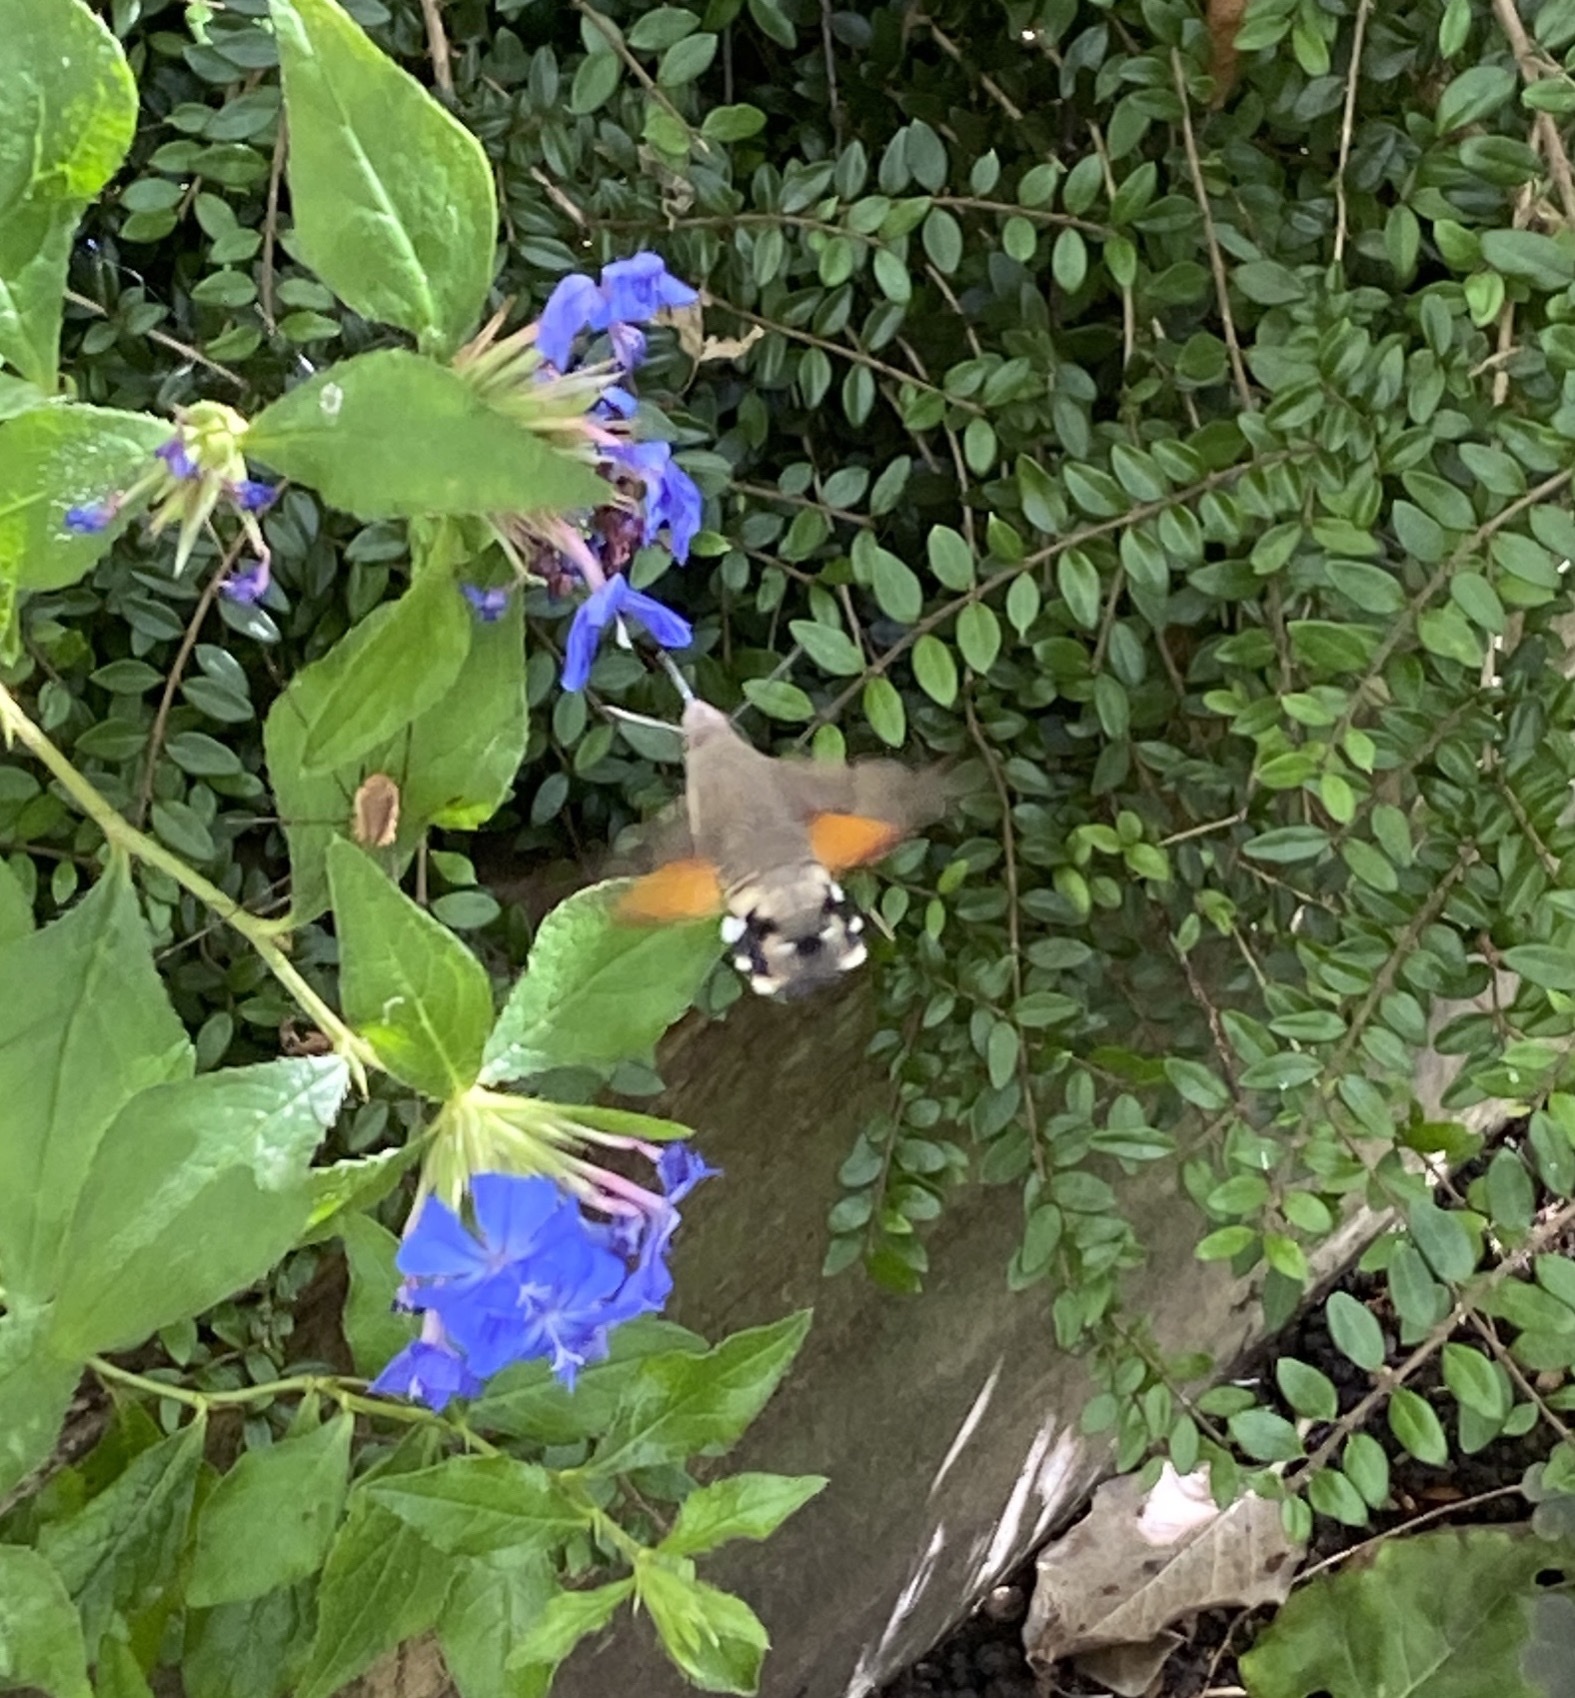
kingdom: Animalia
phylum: Arthropoda
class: Insecta
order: Lepidoptera
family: Sphingidae
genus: Macroglossum
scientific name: Macroglossum stellatarum
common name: Humming-bird hawk-moth
